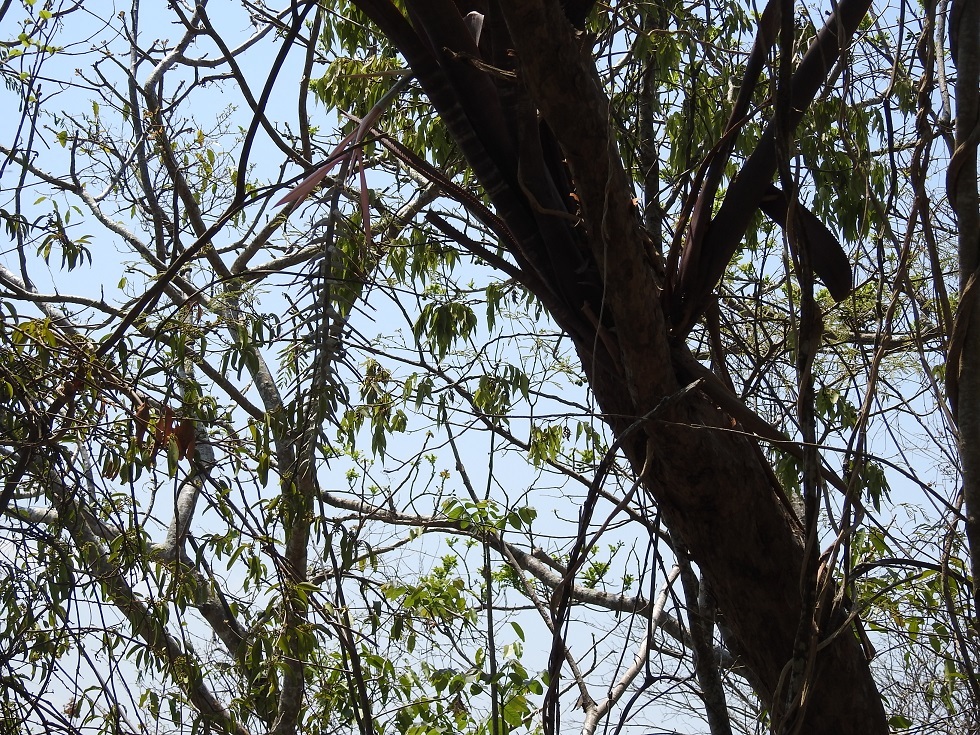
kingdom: Plantae
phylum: Tracheophyta
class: Liliopsida
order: Poales
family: Bromeliaceae
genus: Billbergia
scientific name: Billbergia pallidiflora
